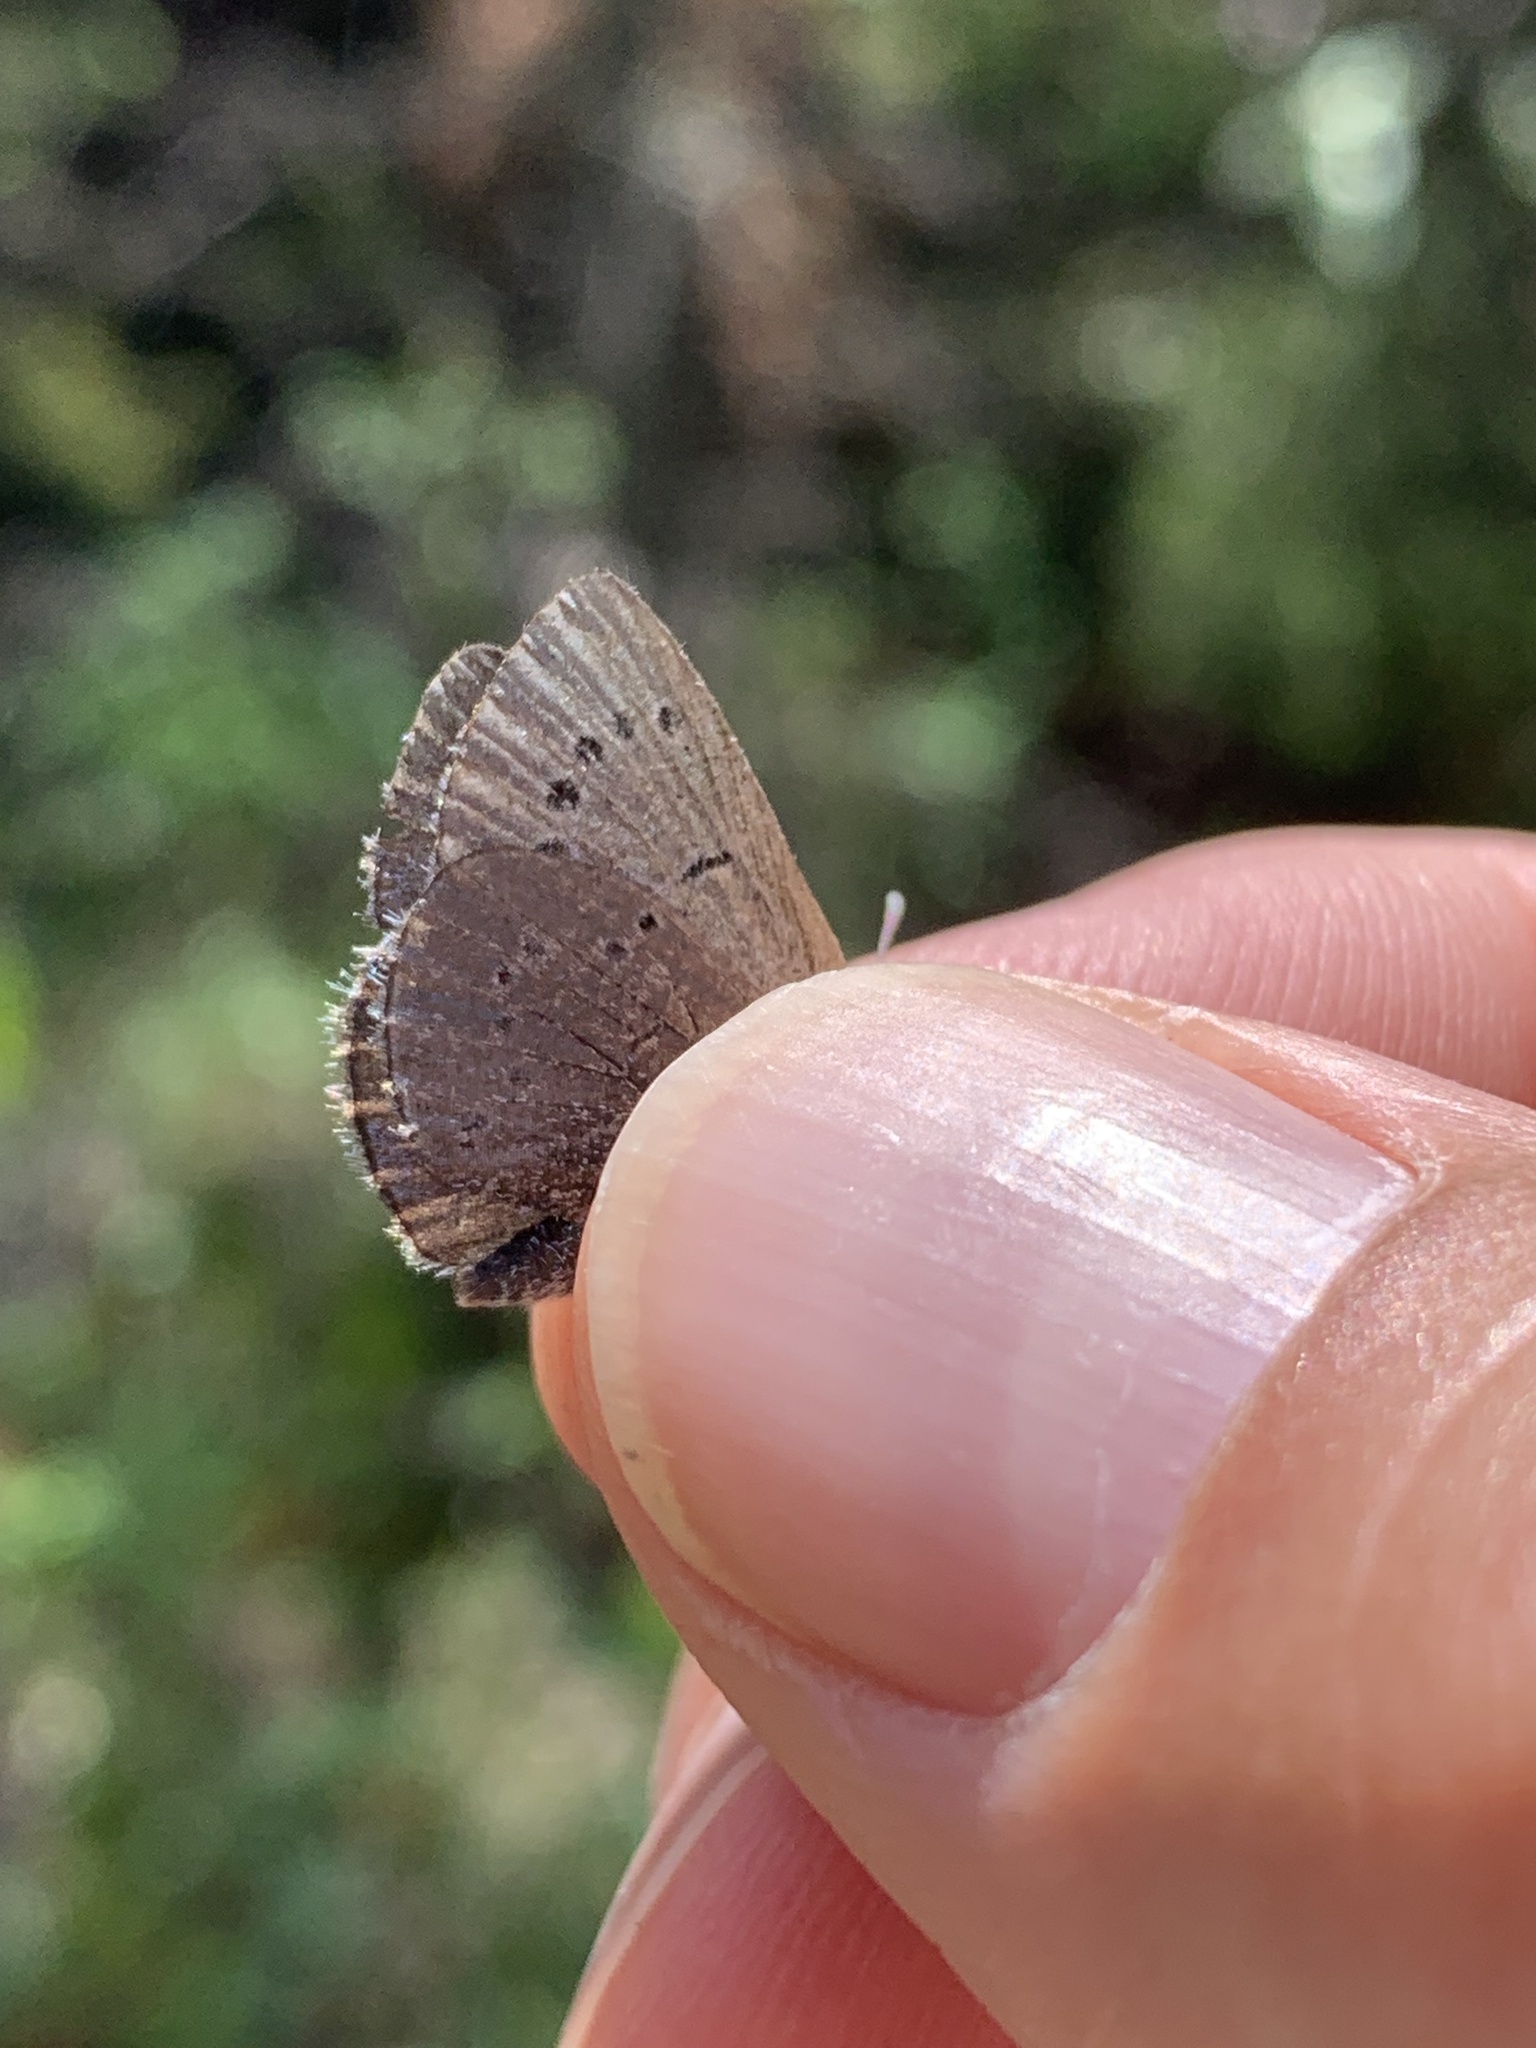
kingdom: Animalia
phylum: Arthropoda
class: Insecta
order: Lepidoptera
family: Lycaenidae
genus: Icaricia
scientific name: Icaricia saepiolus
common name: Greenish blue
